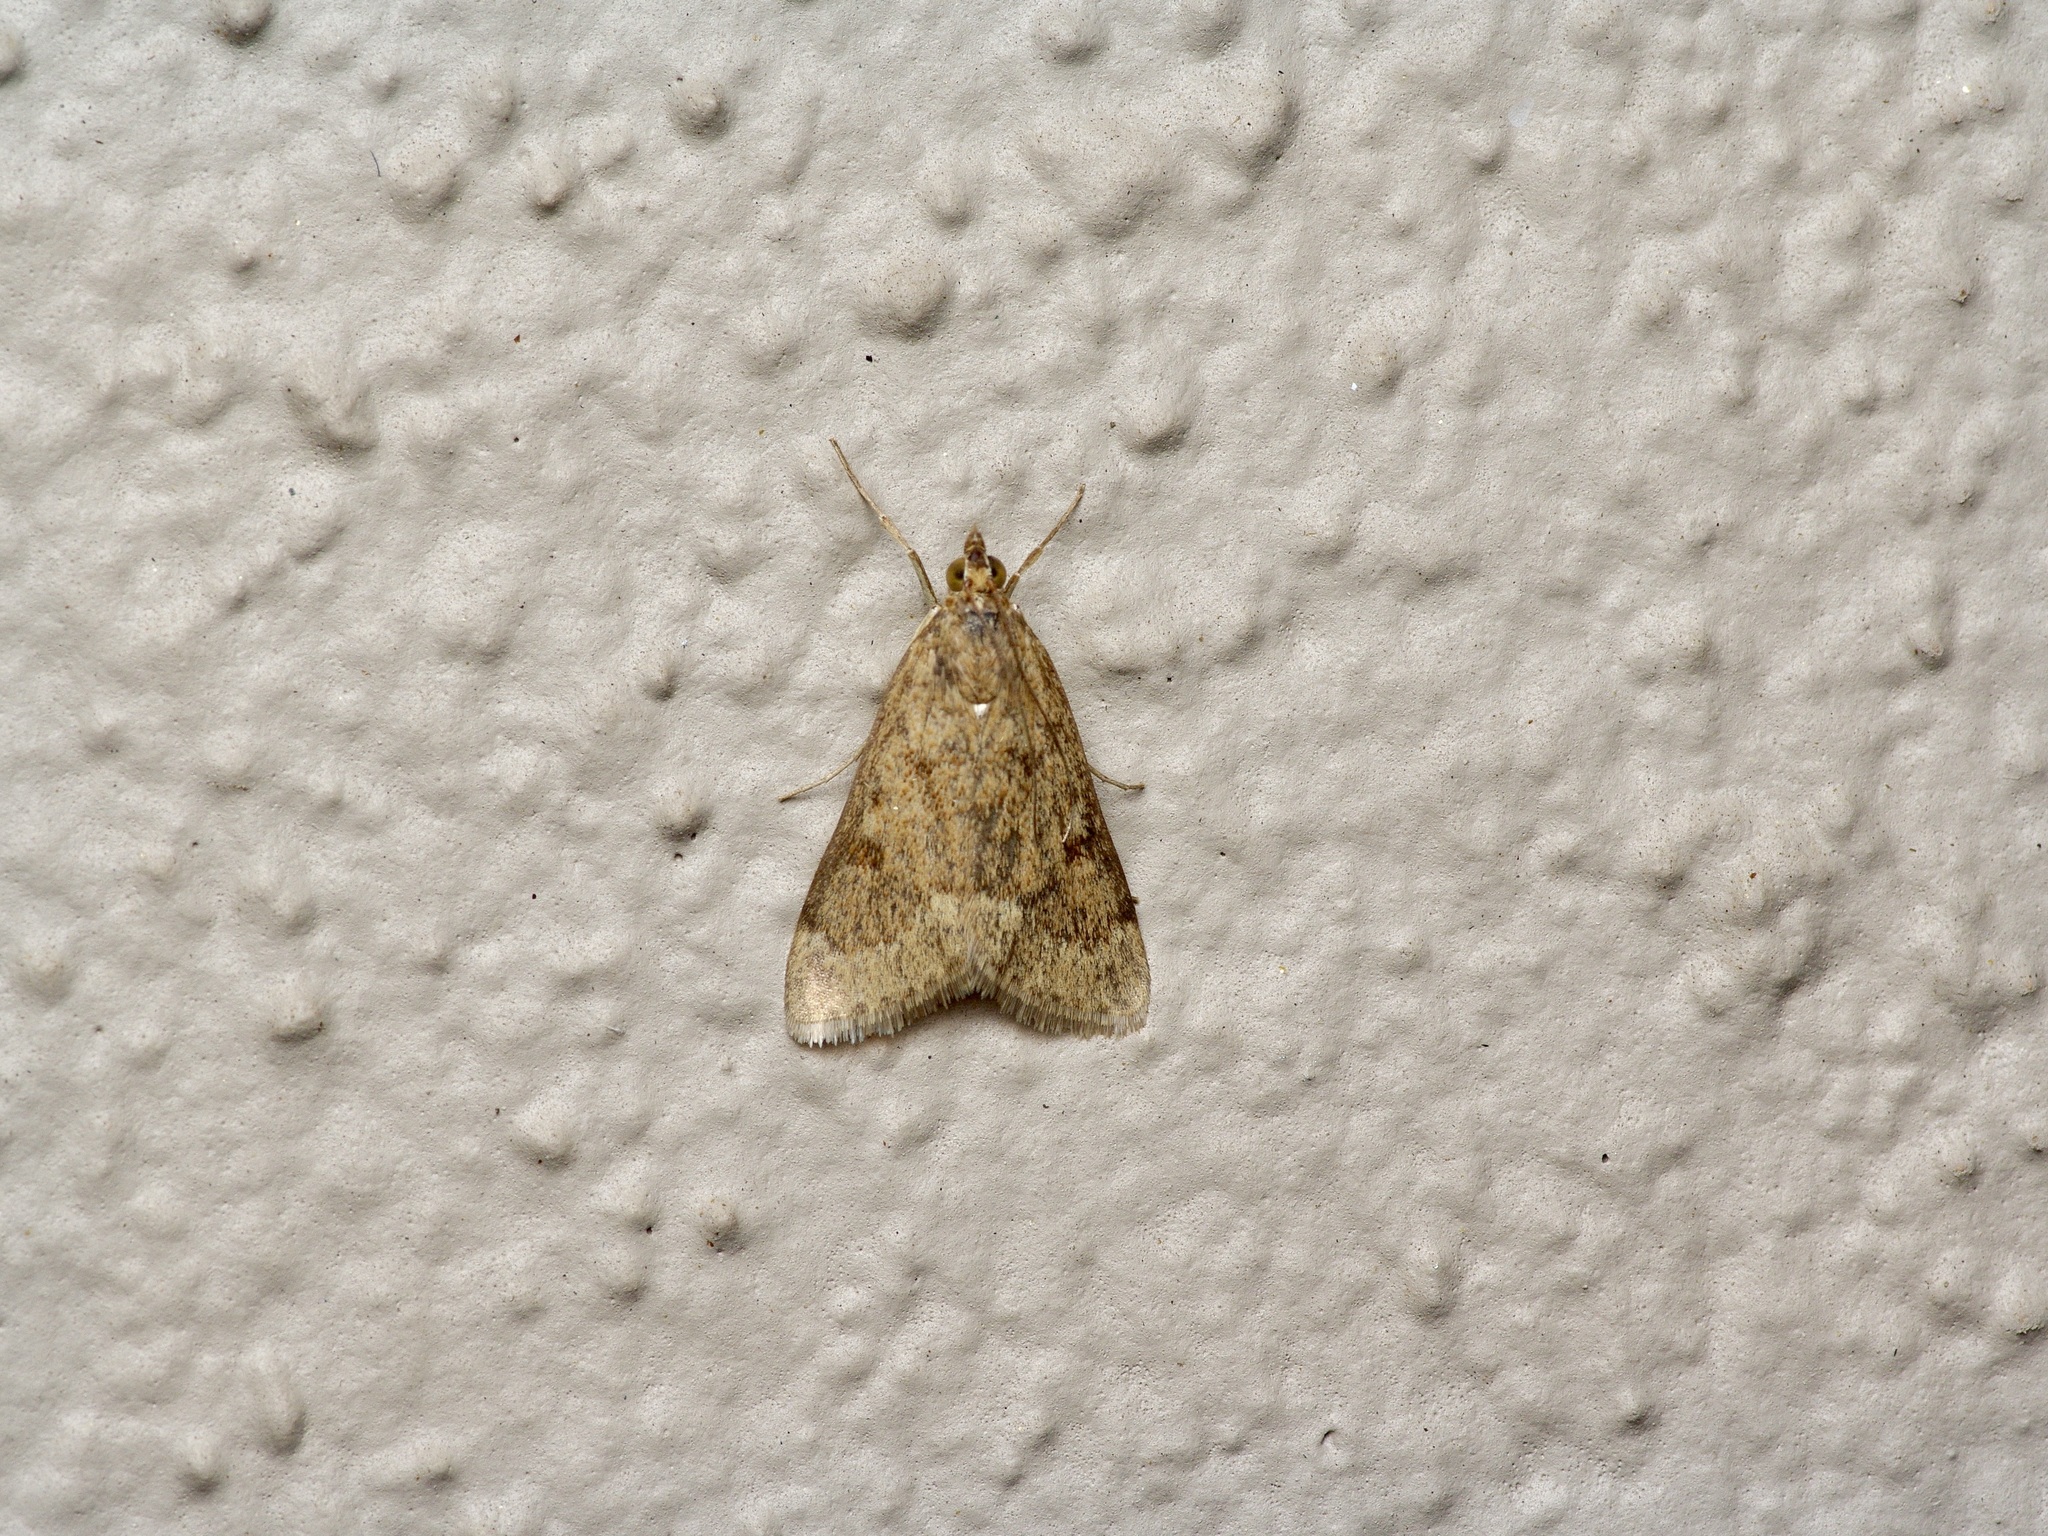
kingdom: Animalia
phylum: Arthropoda
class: Insecta
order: Lepidoptera
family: Crambidae
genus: Achyra
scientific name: Achyra rantalis
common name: Garden webworm
